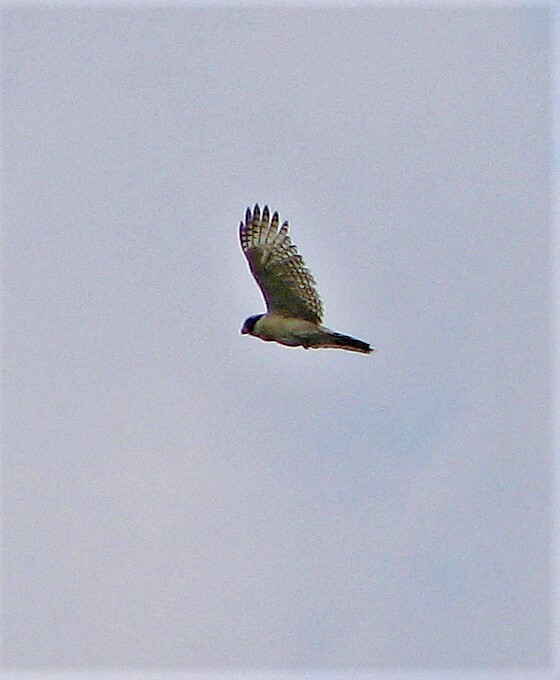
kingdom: Animalia
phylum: Chordata
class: Aves
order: Falconiformes
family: Falconidae
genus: Herpetotheres
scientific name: Herpetotheres cachinnans
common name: Laughing falcon
